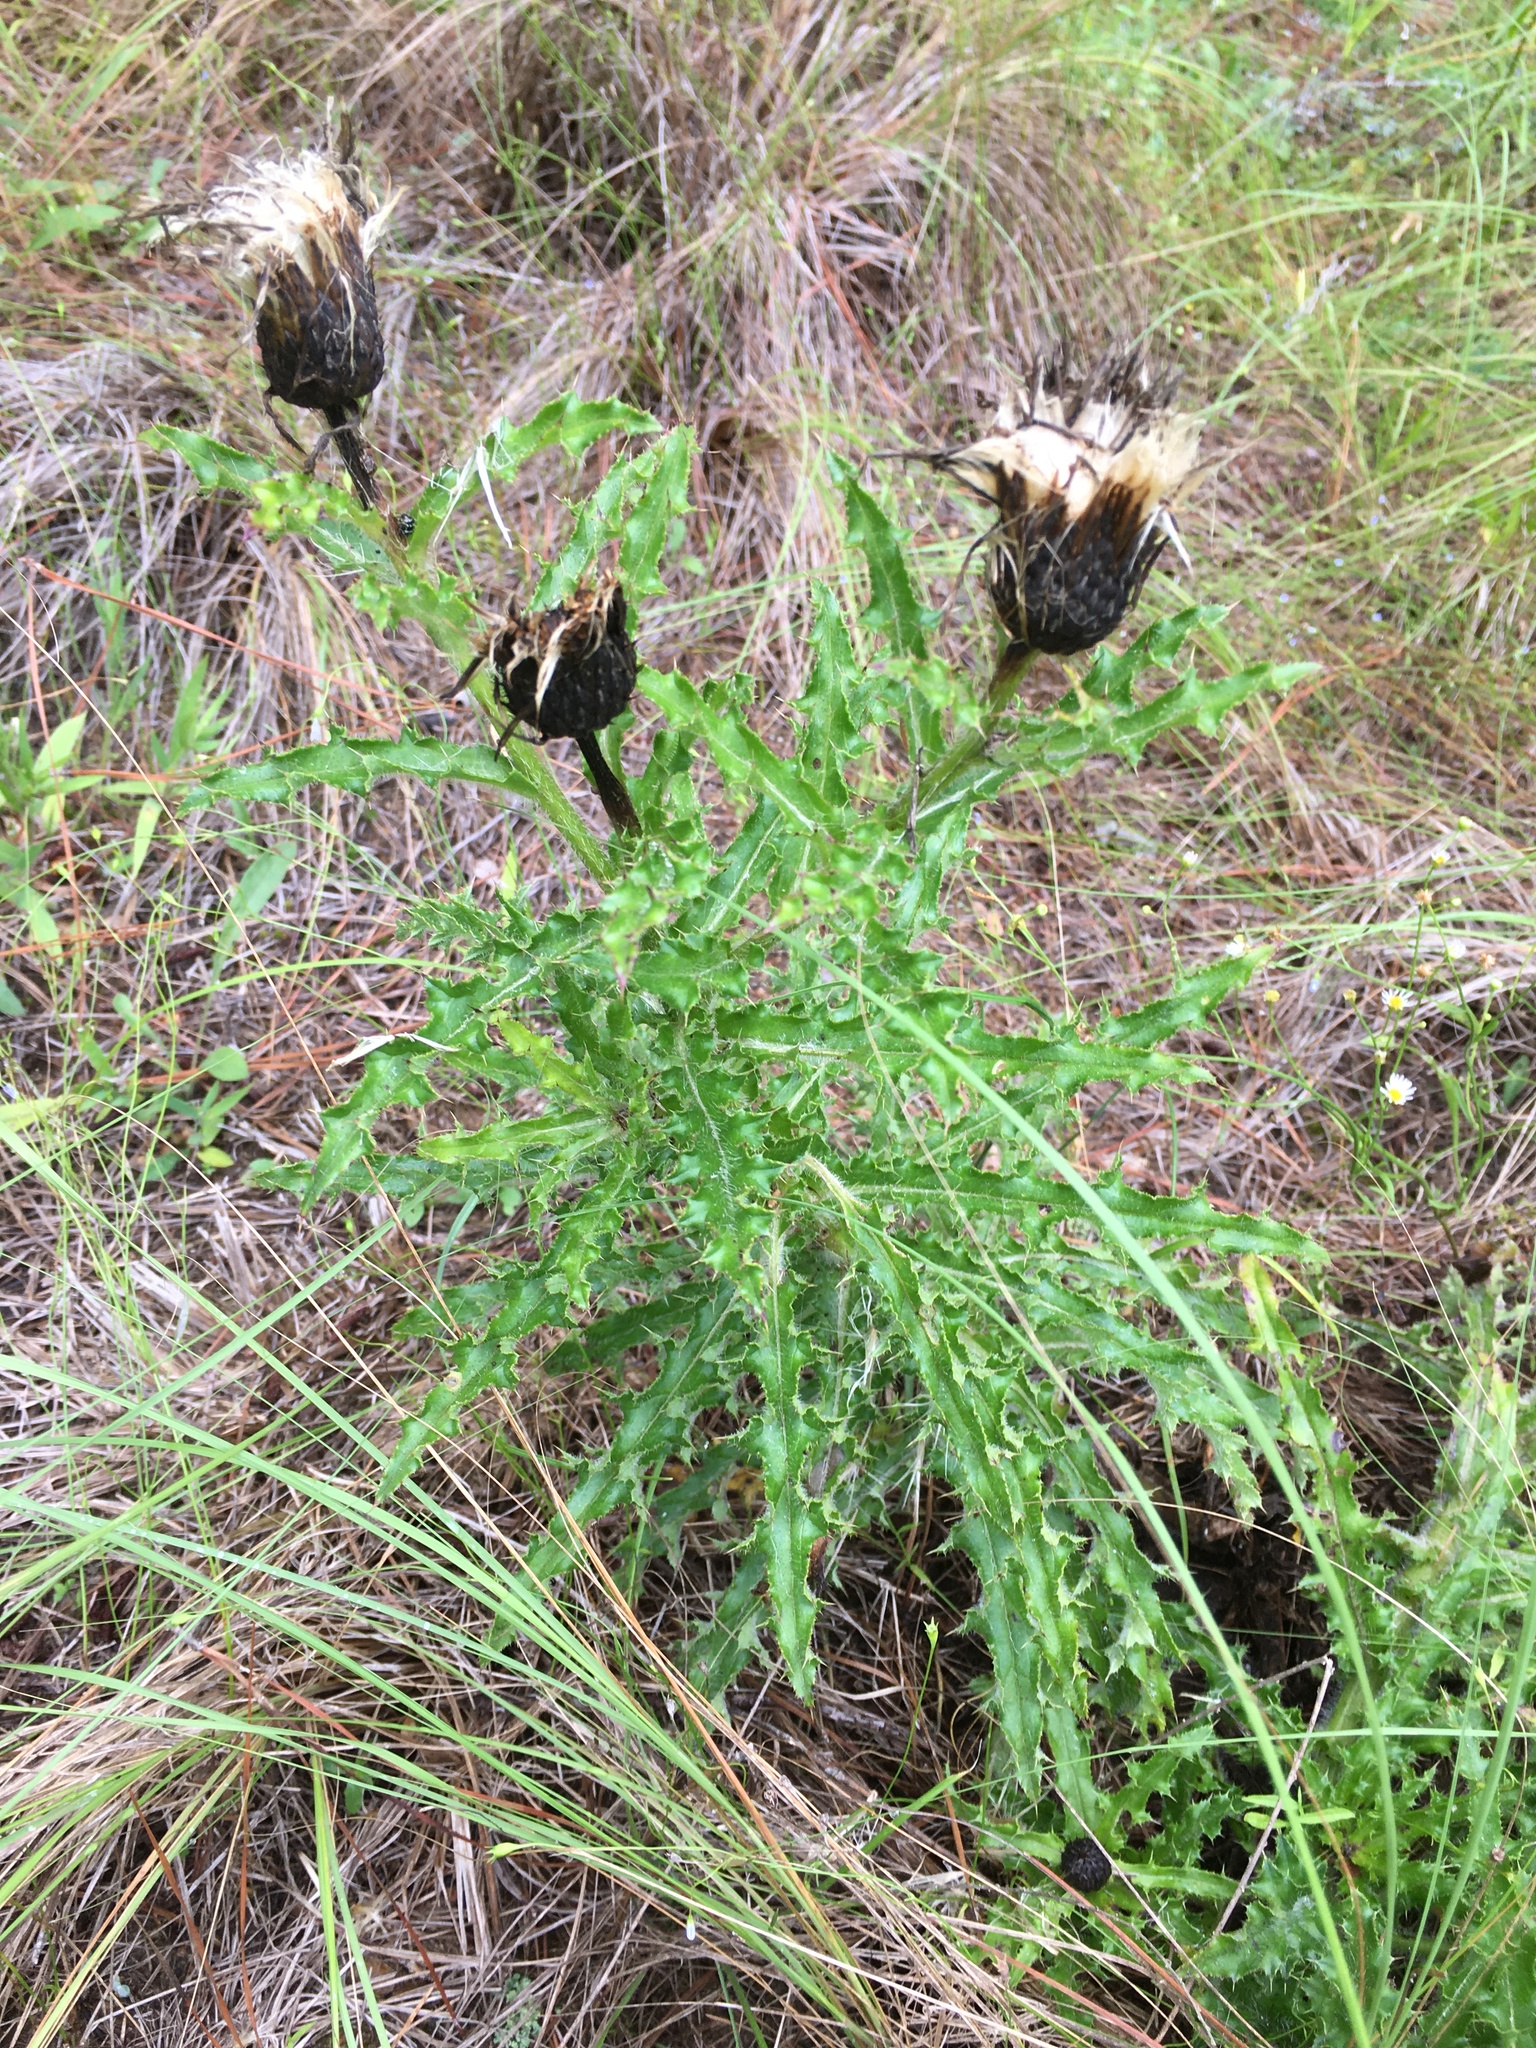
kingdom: Plantae
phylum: Tracheophyta
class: Magnoliopsida
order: Asterales
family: Asteraceae
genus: Cirsium
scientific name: Cirsium repandum
